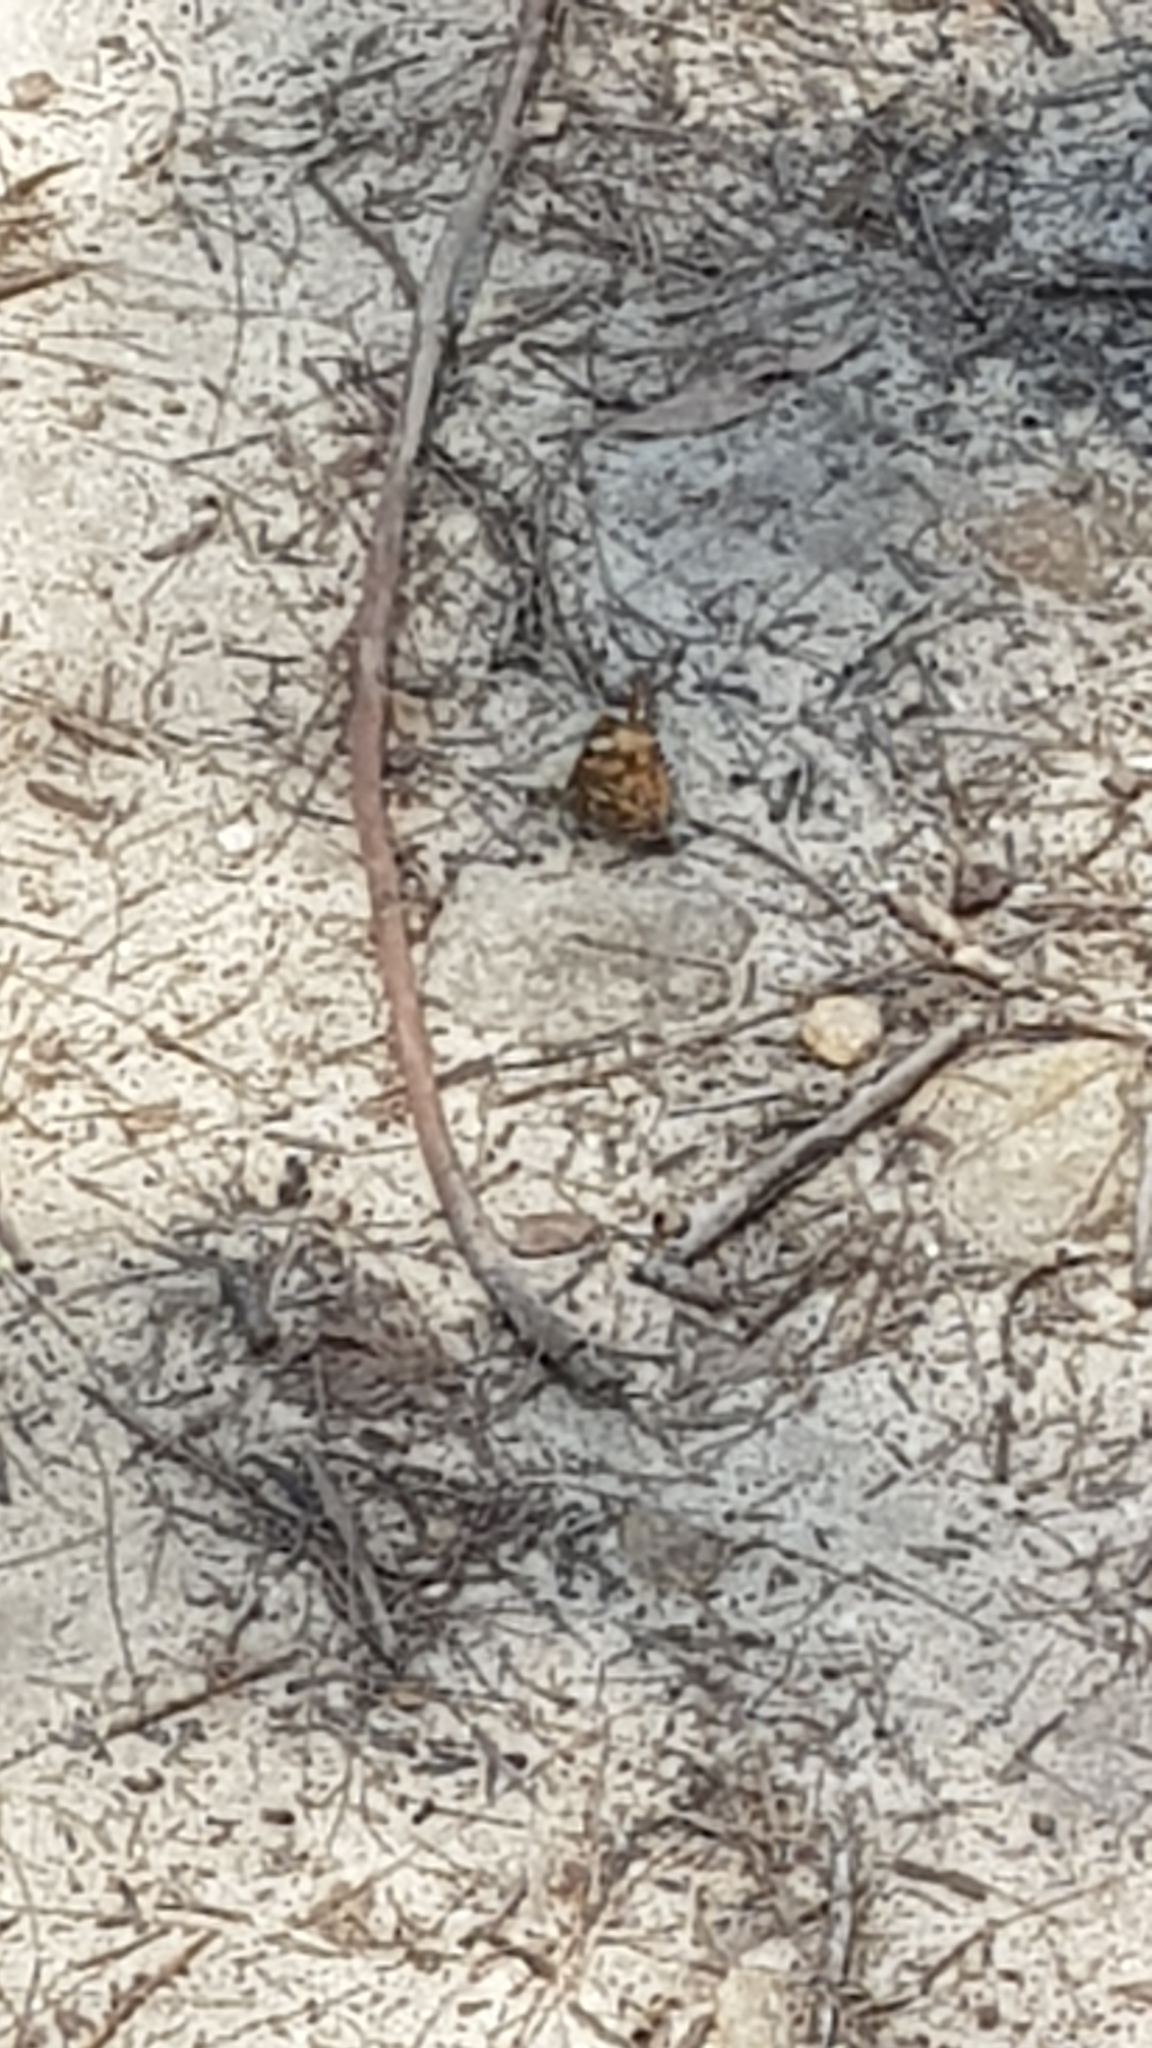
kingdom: Animalia
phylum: Arthropoda
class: Insecta
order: Lepidoptera
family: Nymphalidae
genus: Vanessa
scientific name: Vanessa kershawi
